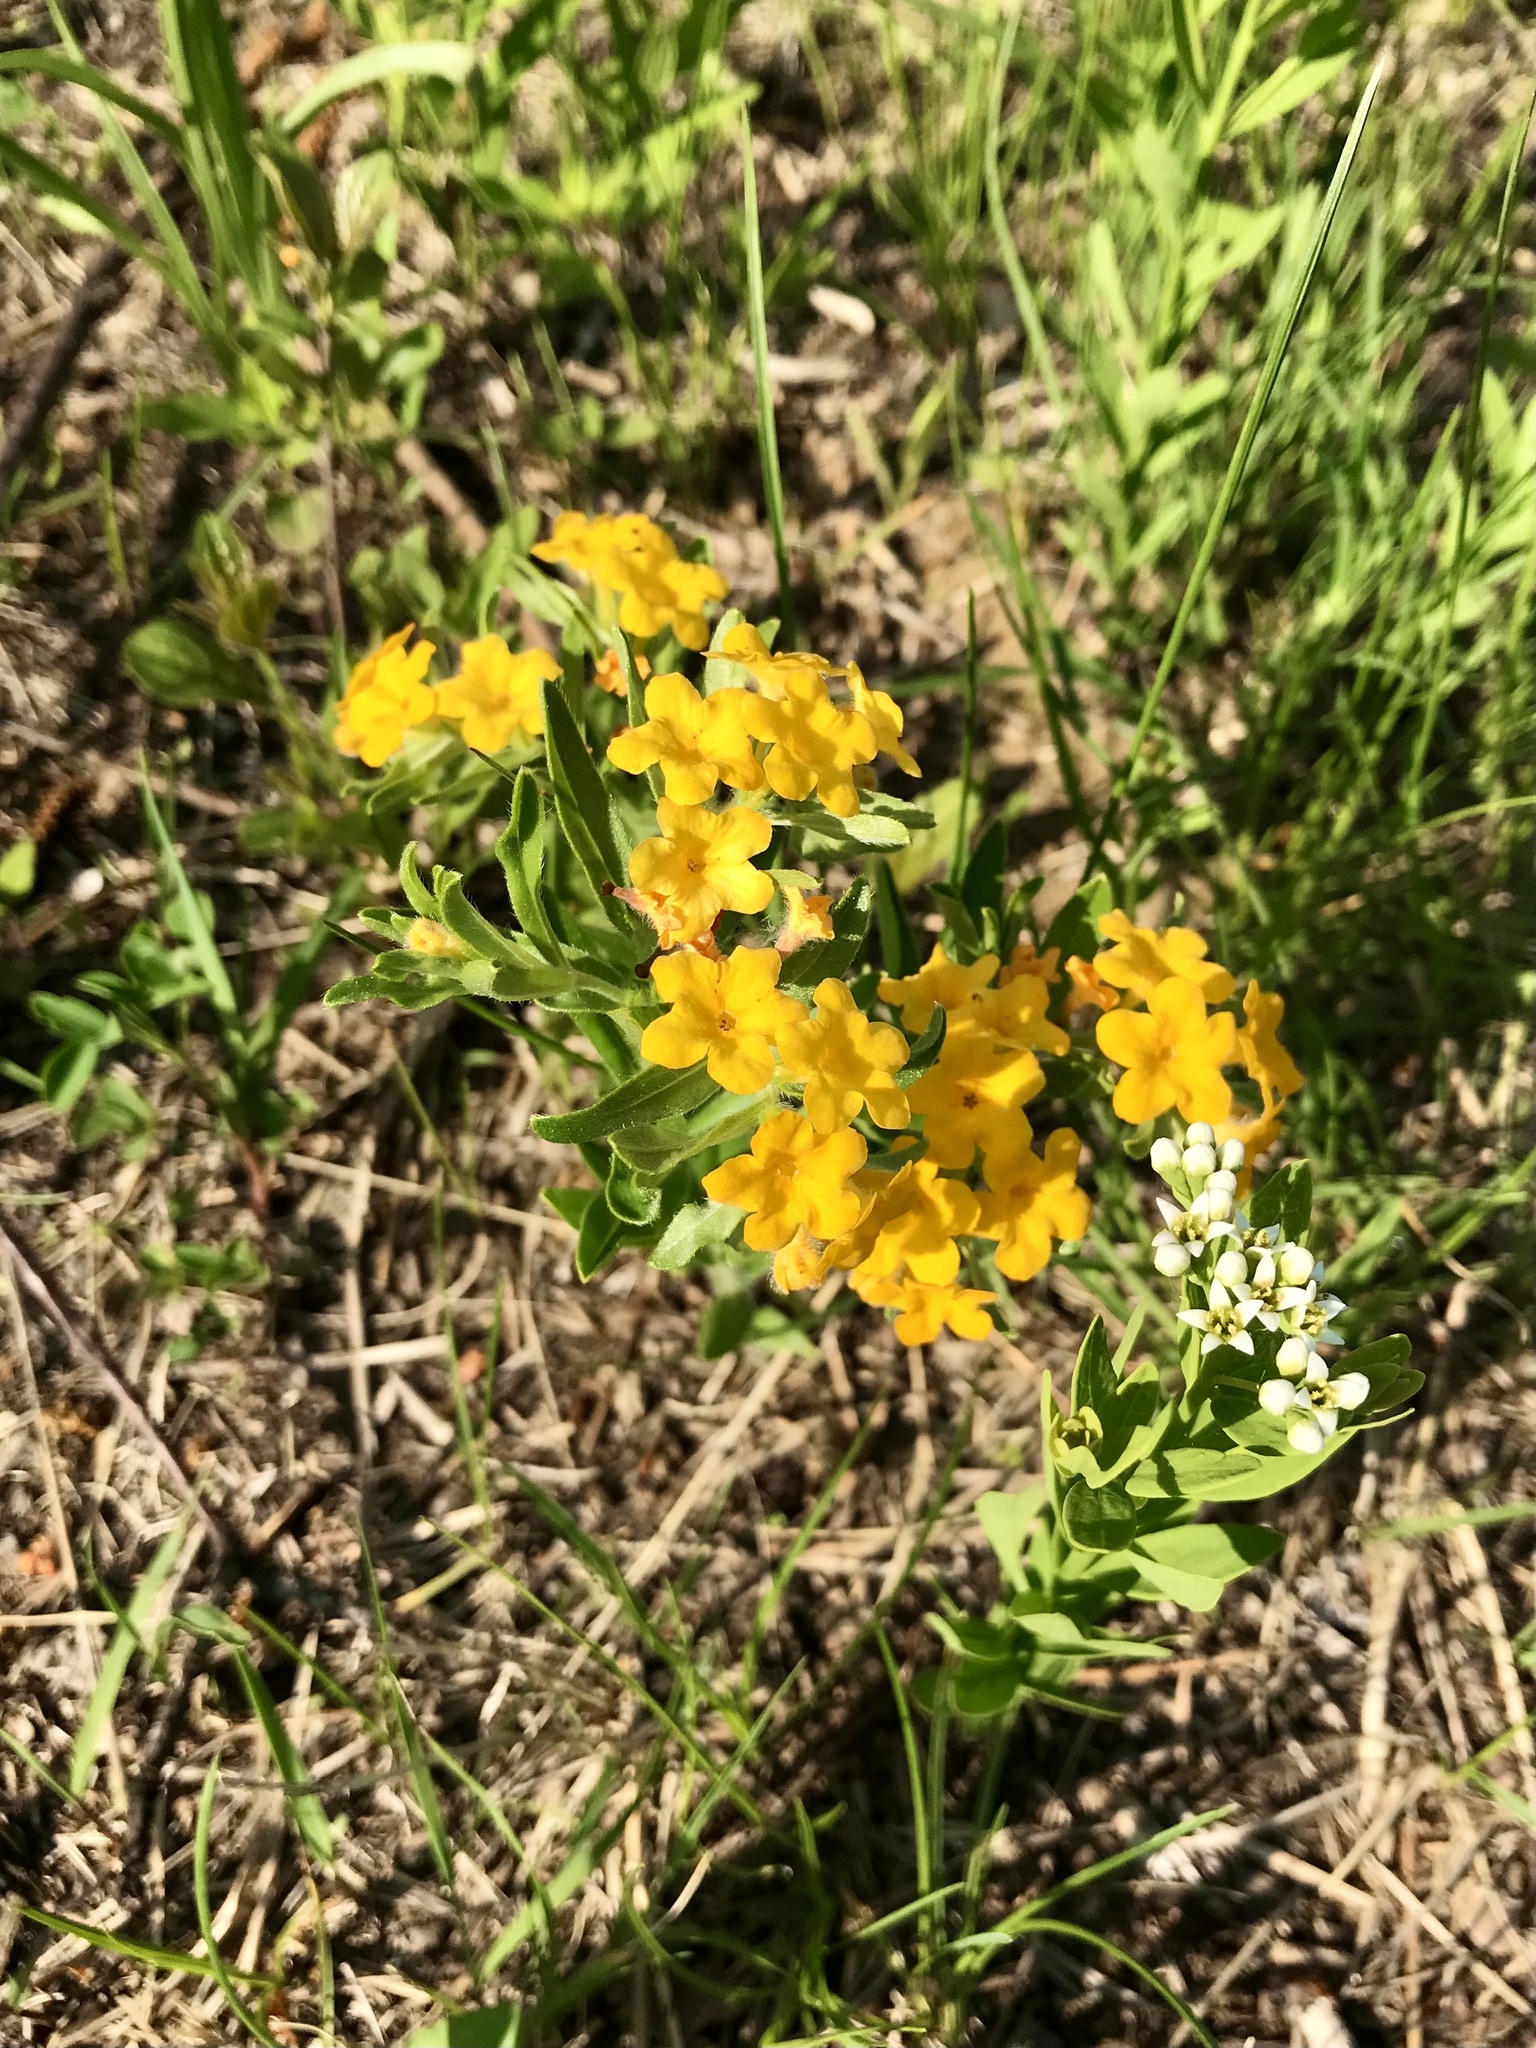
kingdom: Plantae
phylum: Tracheophyta
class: Magnoliopsida
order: Boraginales
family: Boraginaceae
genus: Lithospermum
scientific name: Lithospermum canescens
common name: Hoary puccoon
